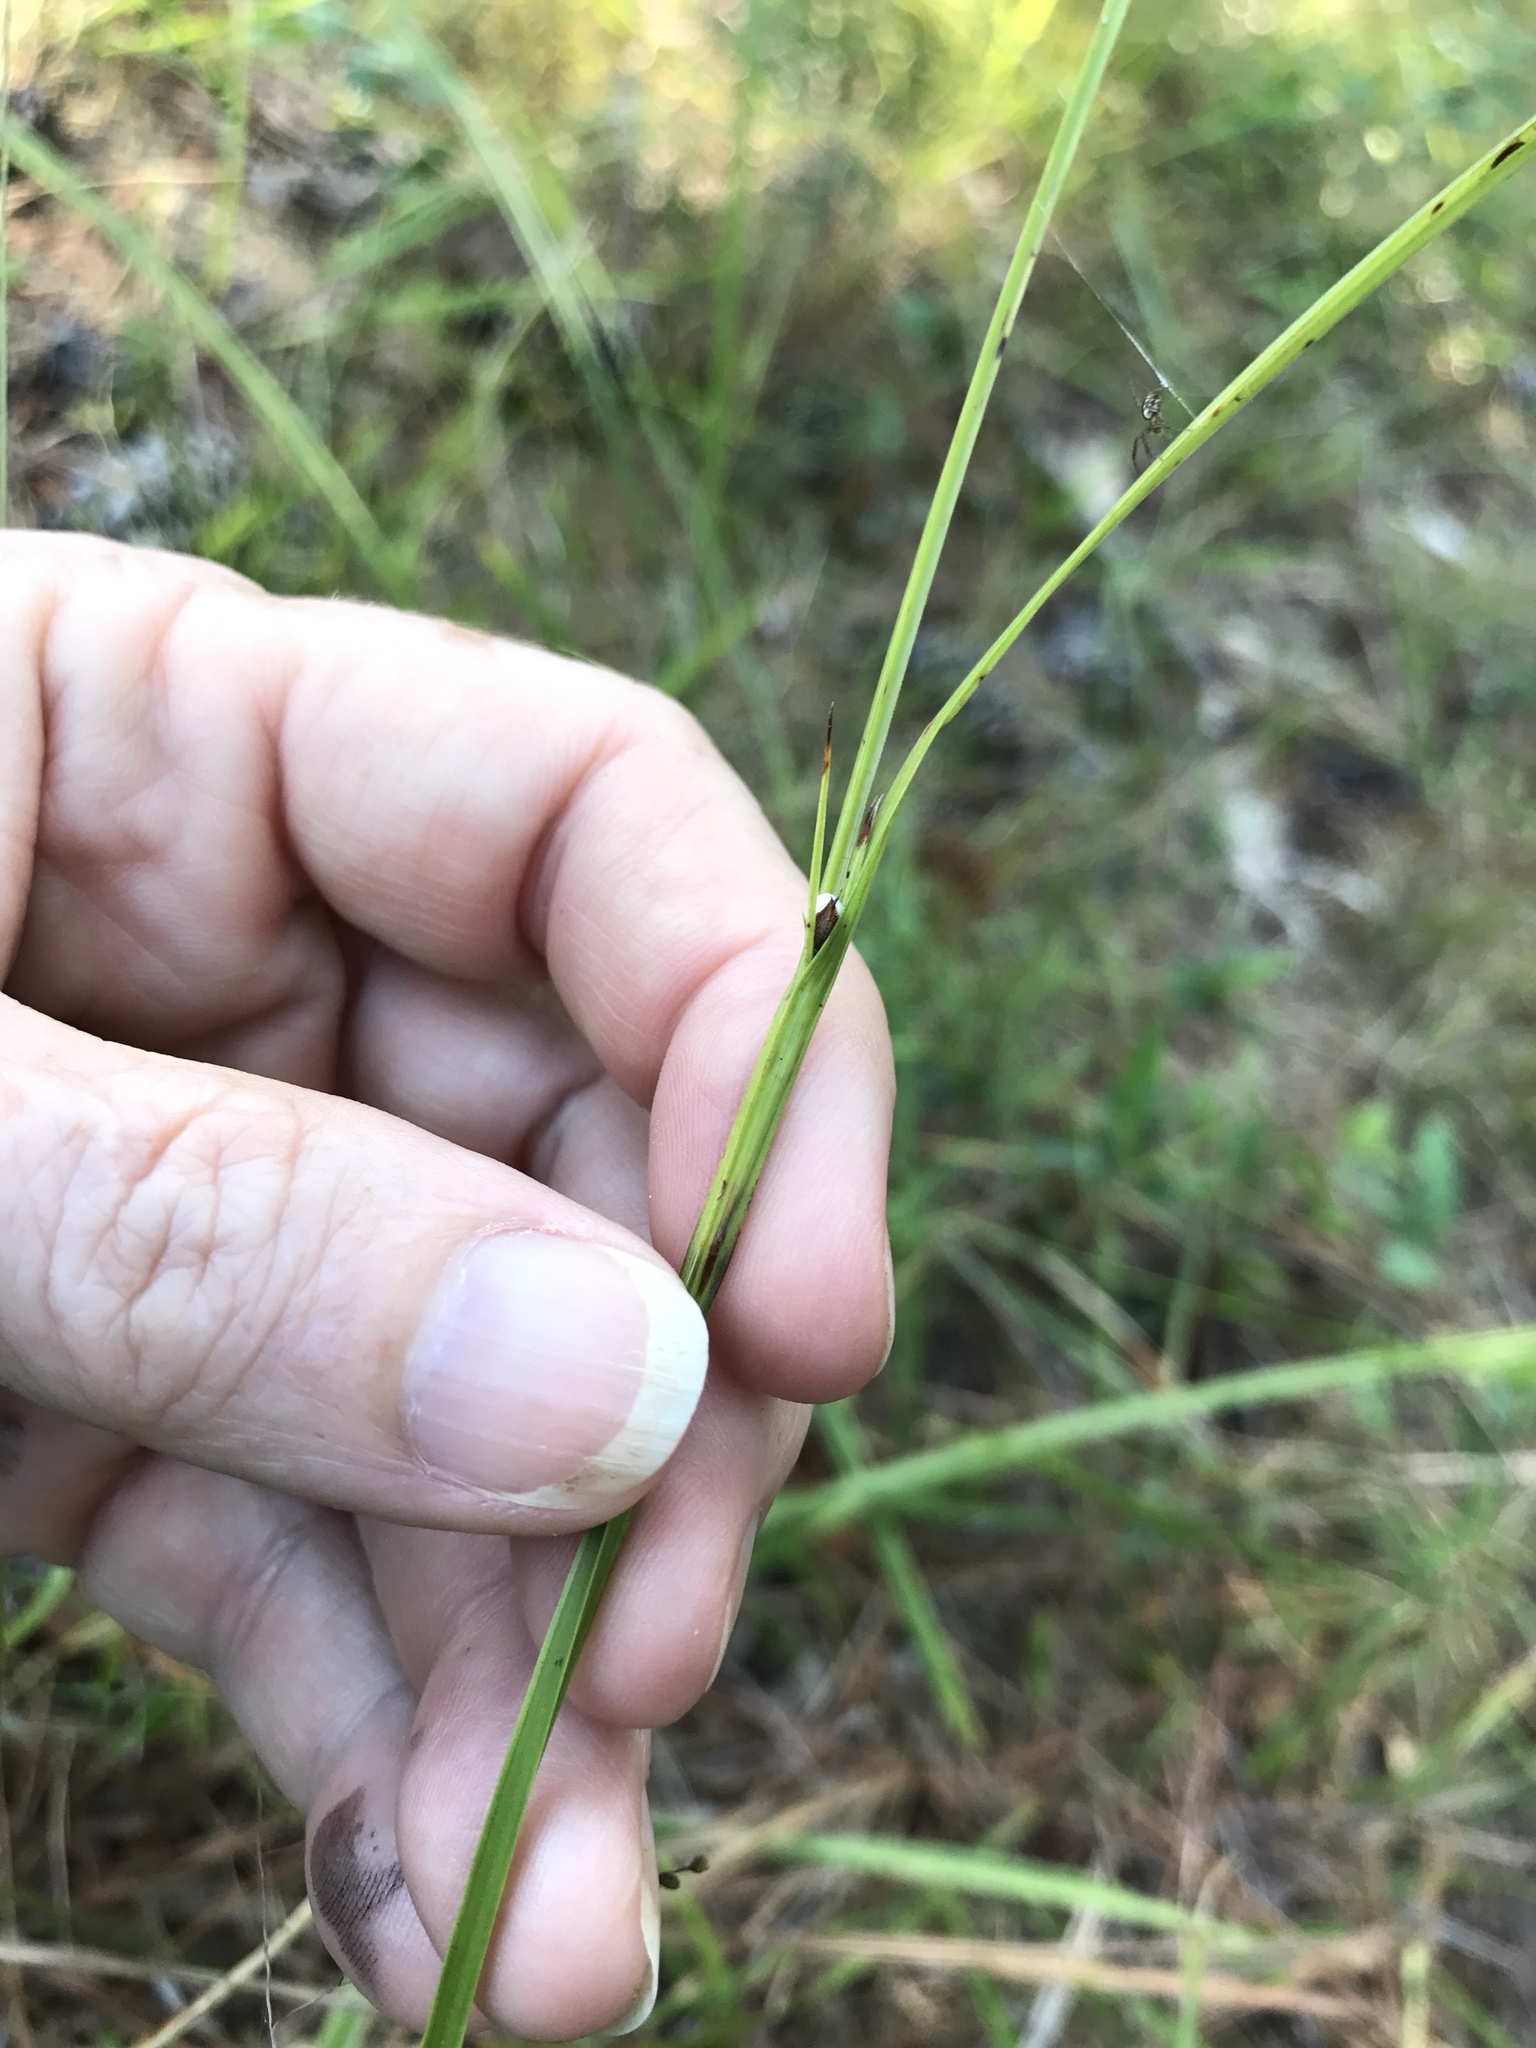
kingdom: Plantae
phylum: Tracheophyta
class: Liliopsida
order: Poales
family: Cyperaceae
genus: Scleria
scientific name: Scleria oligantha
